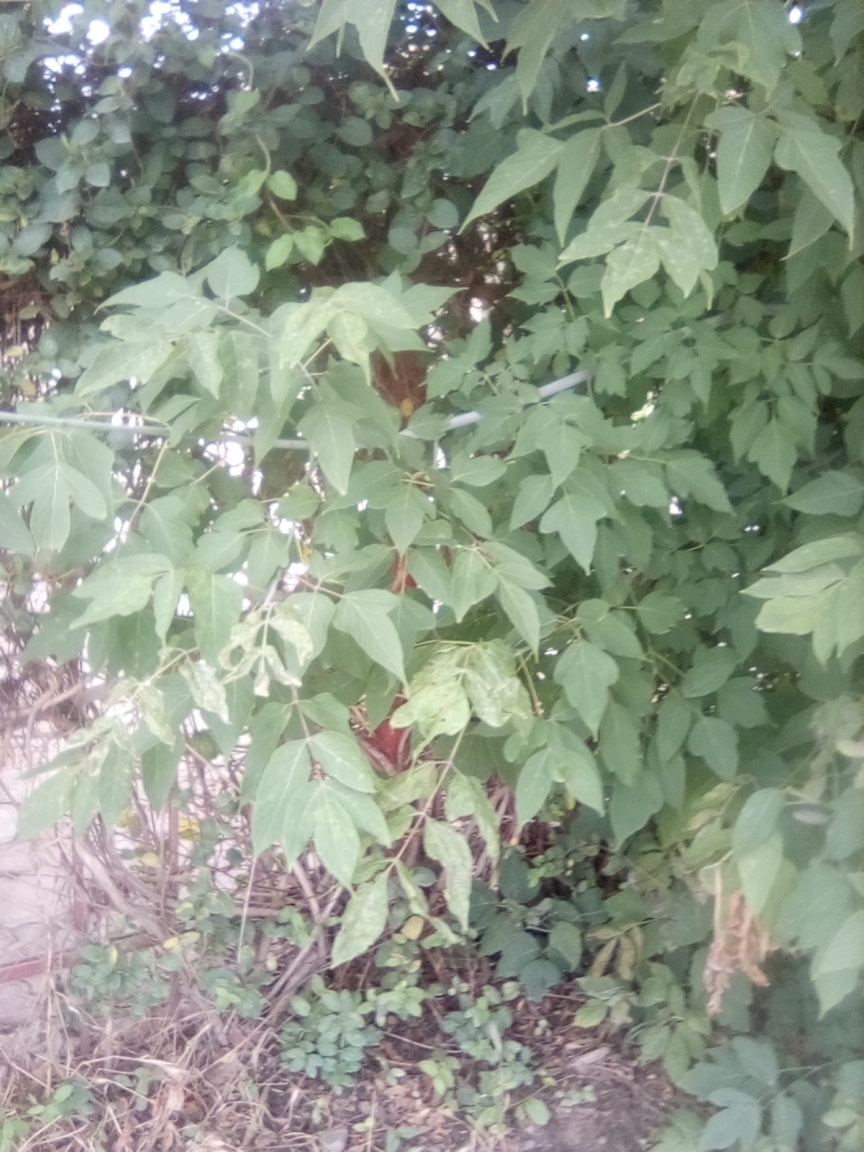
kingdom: Plantae
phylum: Tracheophyta
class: Magnoliopsida
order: Sapindales
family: Sapindaceae
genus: Acer
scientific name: Acer negundo
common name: Ashleaf maple
